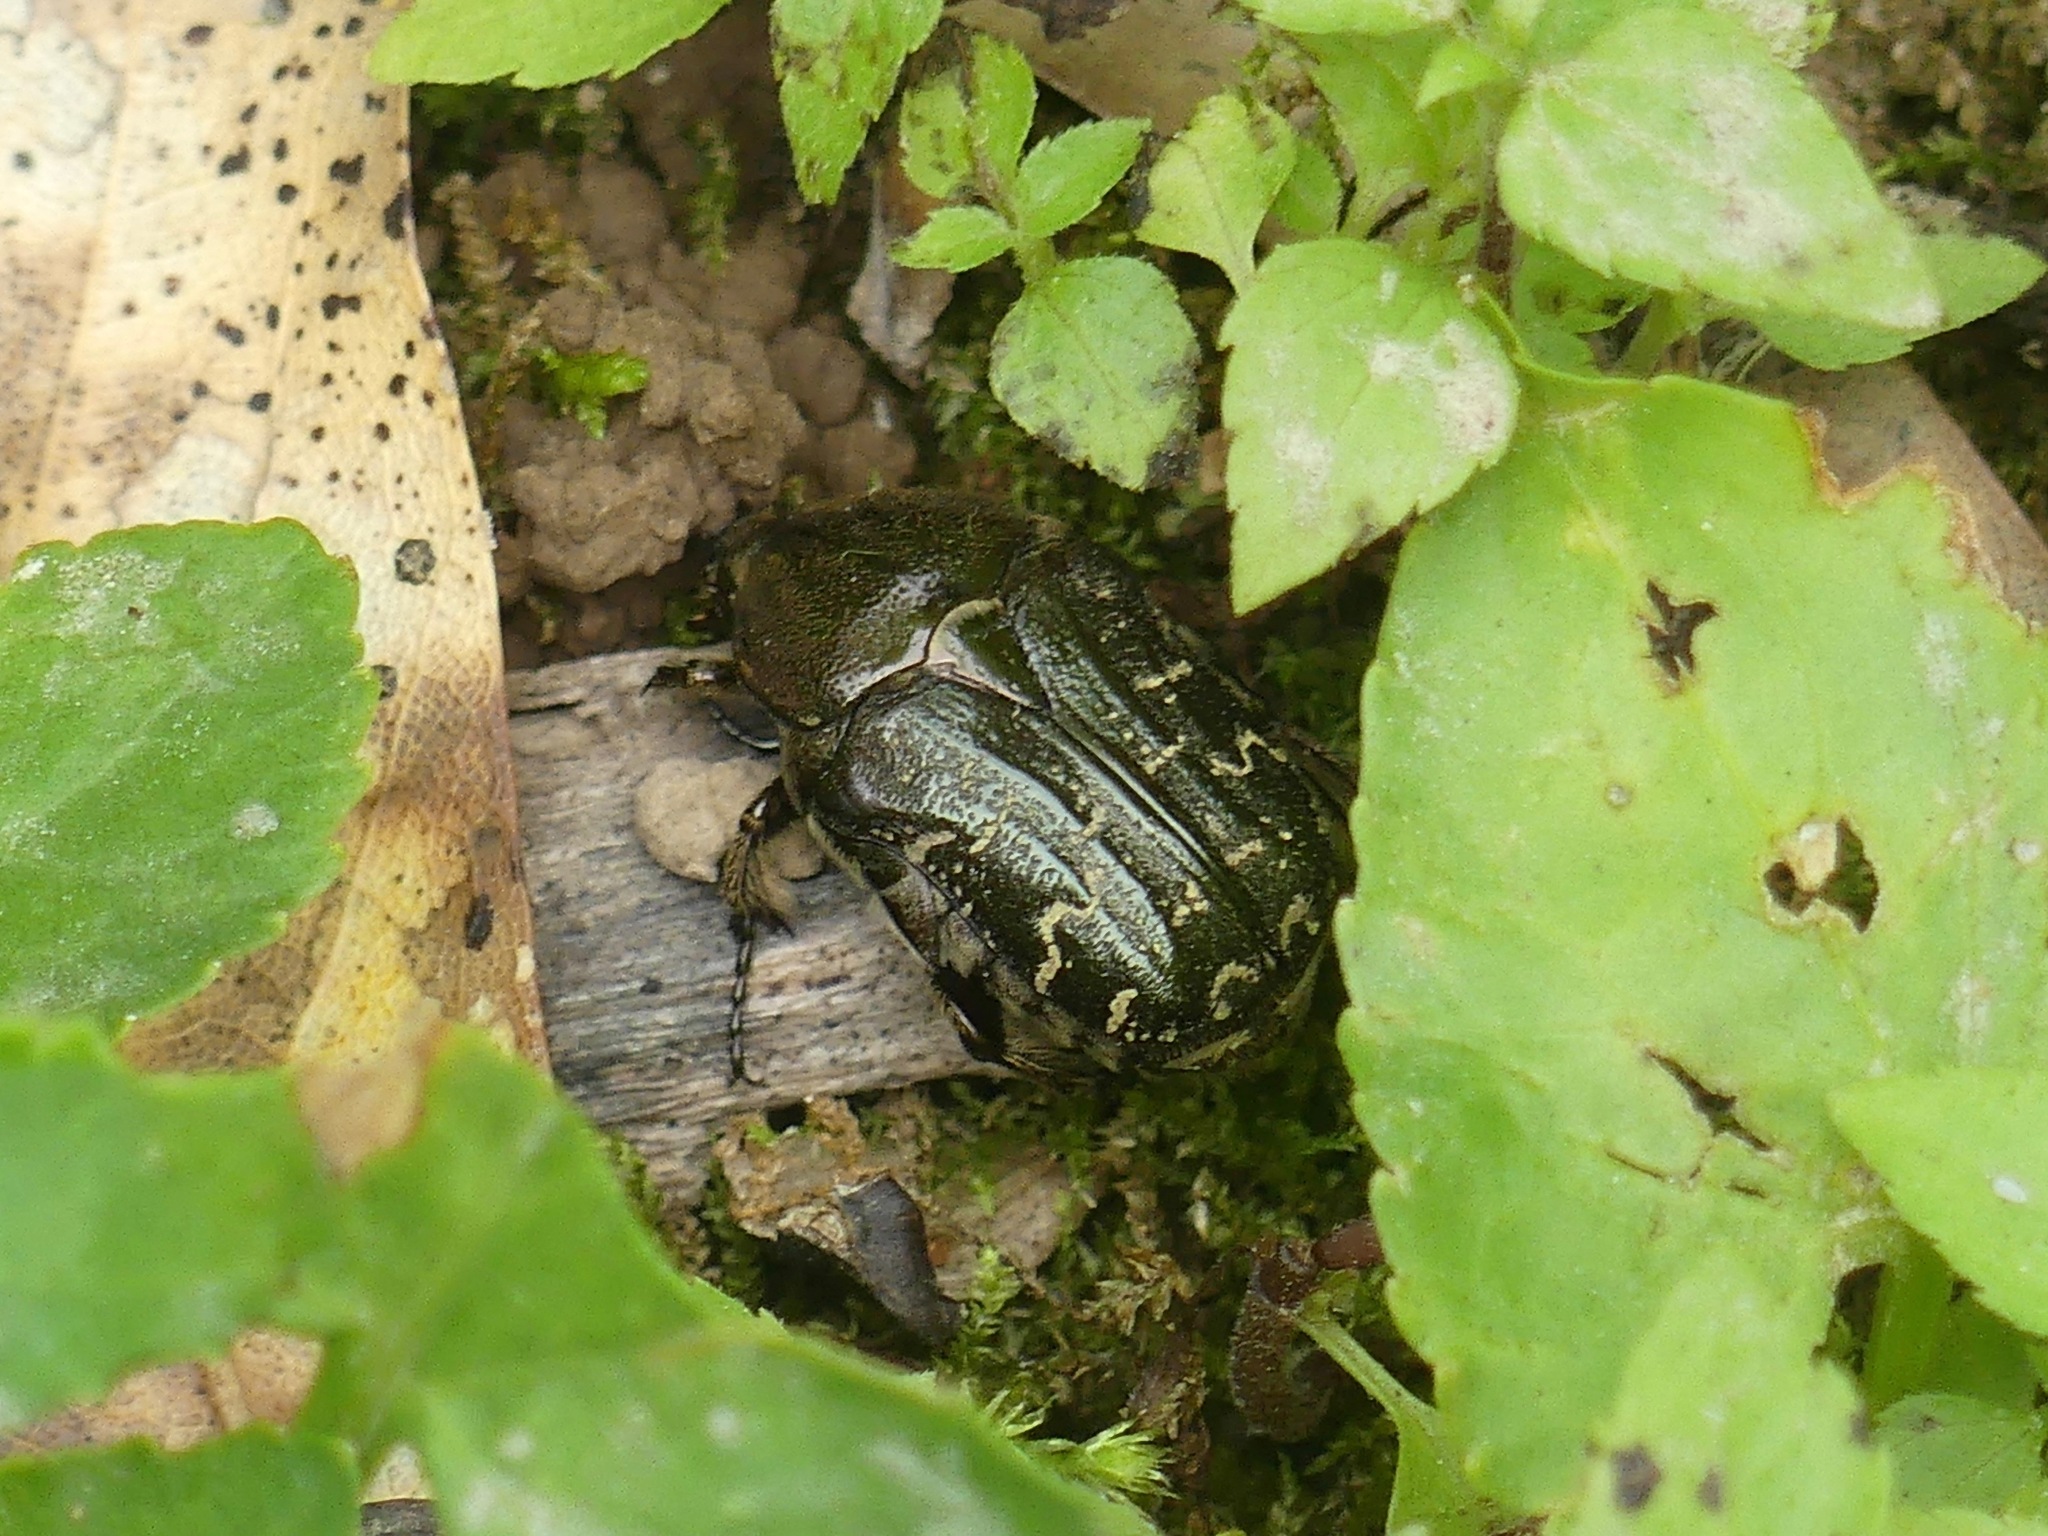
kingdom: Animalia
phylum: Arthropoda
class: Insecta
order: Coleoptera
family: Scarabaeidae
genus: Euphoria
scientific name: Euphoria sepulcralis
